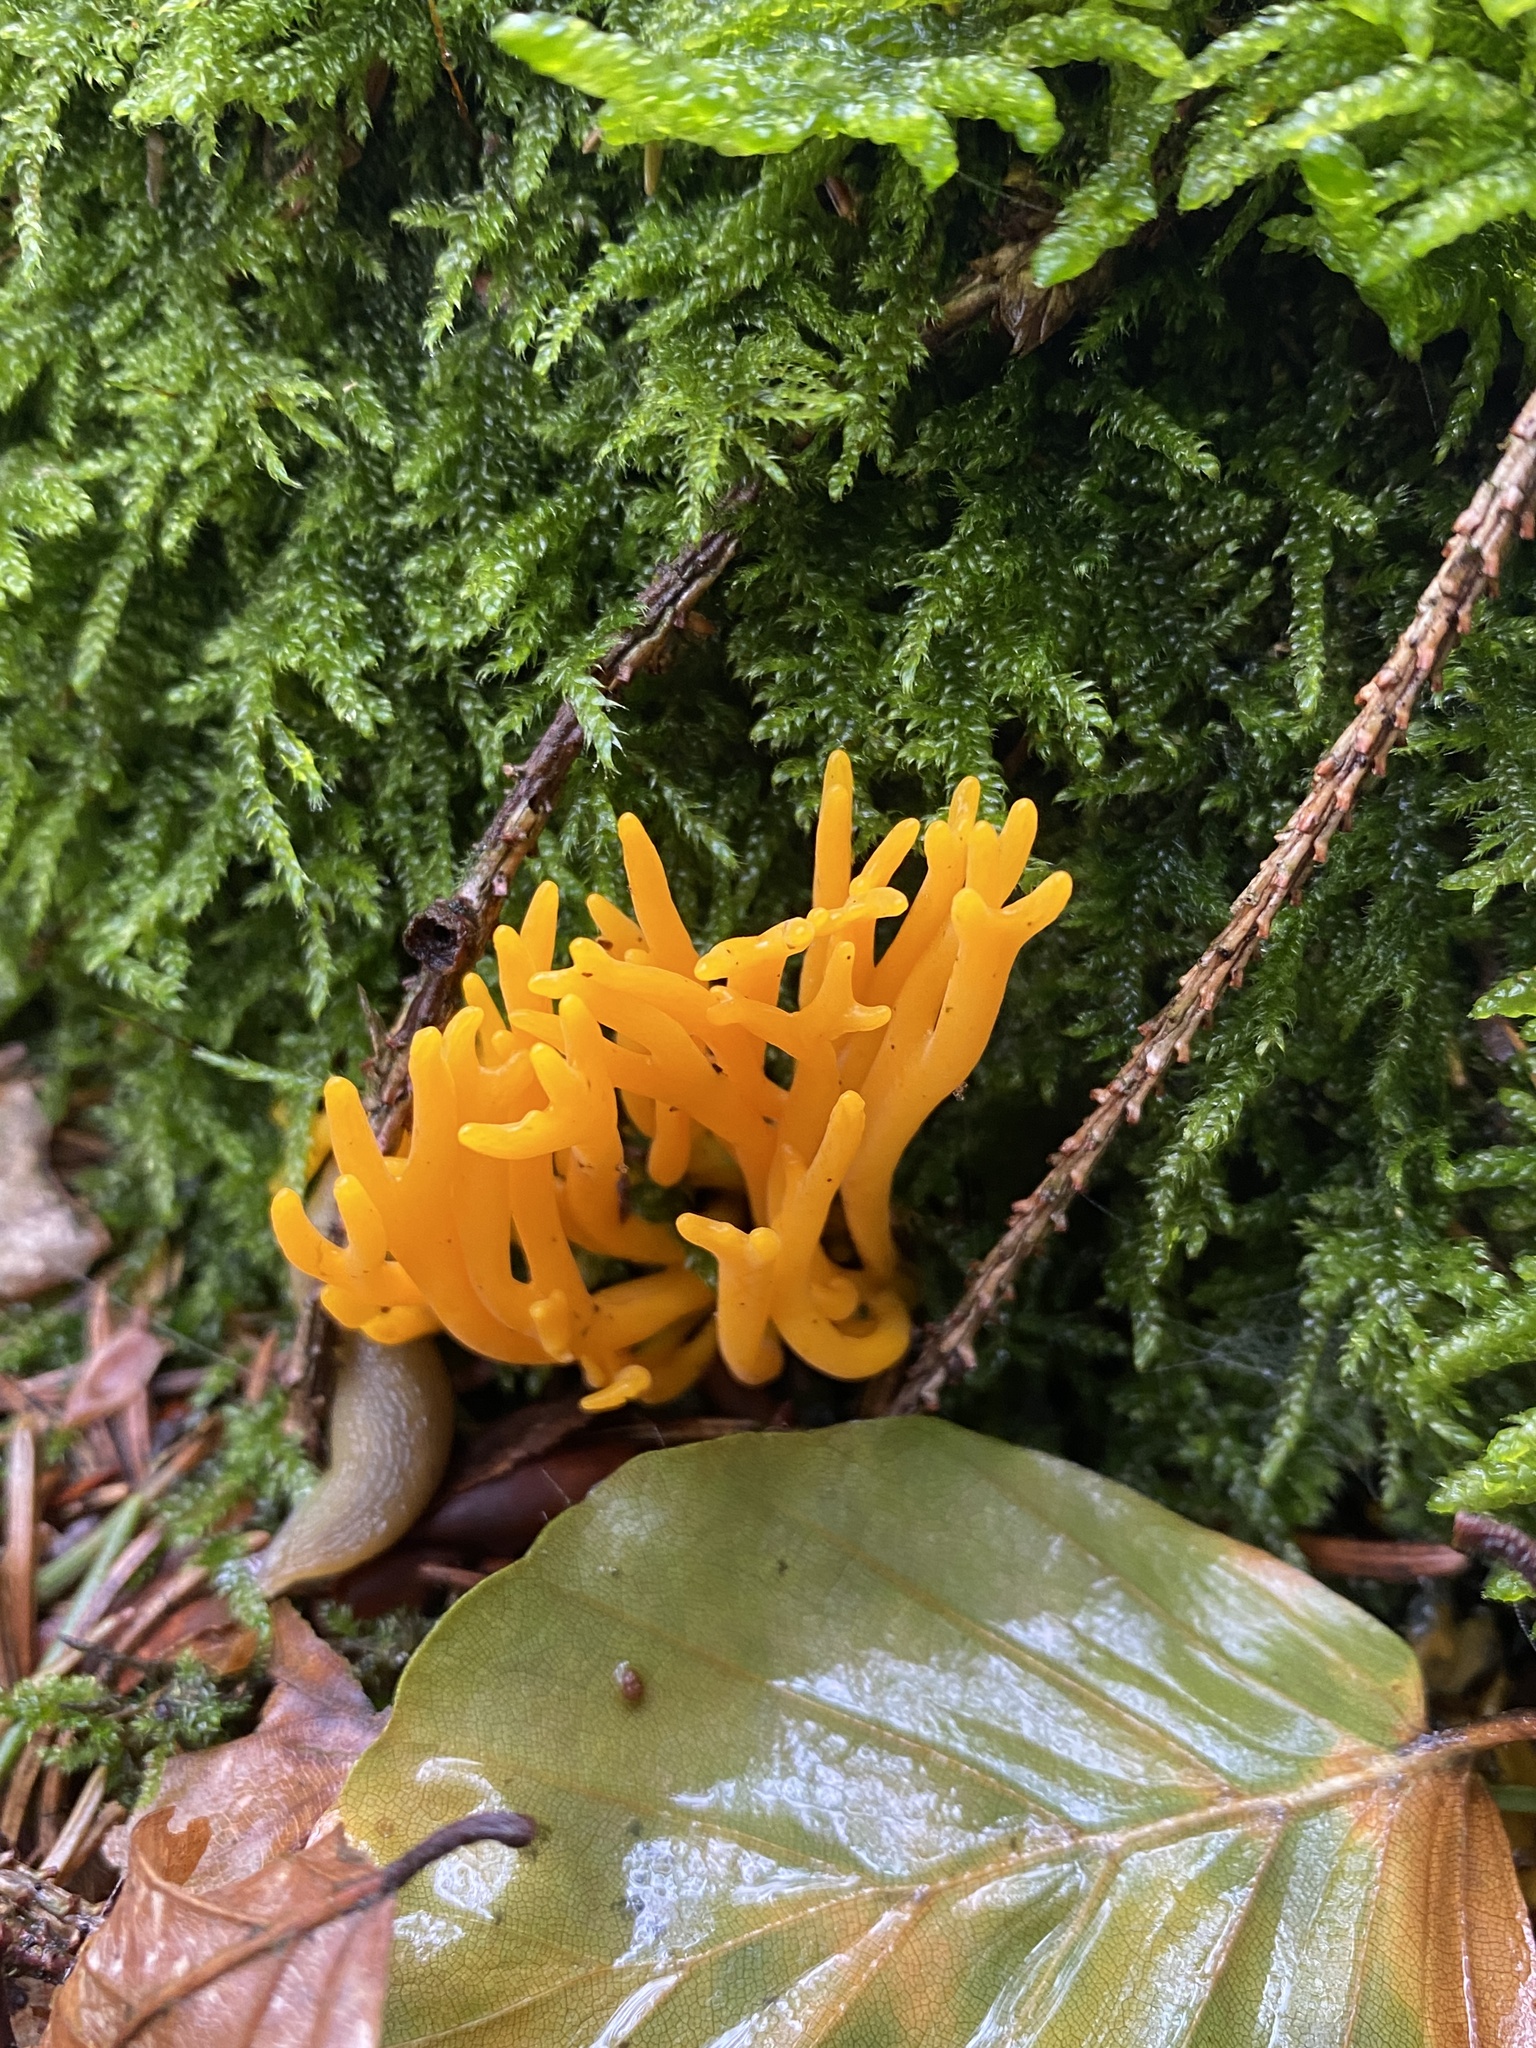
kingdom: Fungi
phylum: Basidiomycota
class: Dacrymycetes
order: Dacrymycetales
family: Dacrymycetaceae
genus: Calocera
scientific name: Calocera viscosa
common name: Yellow stagshorn
